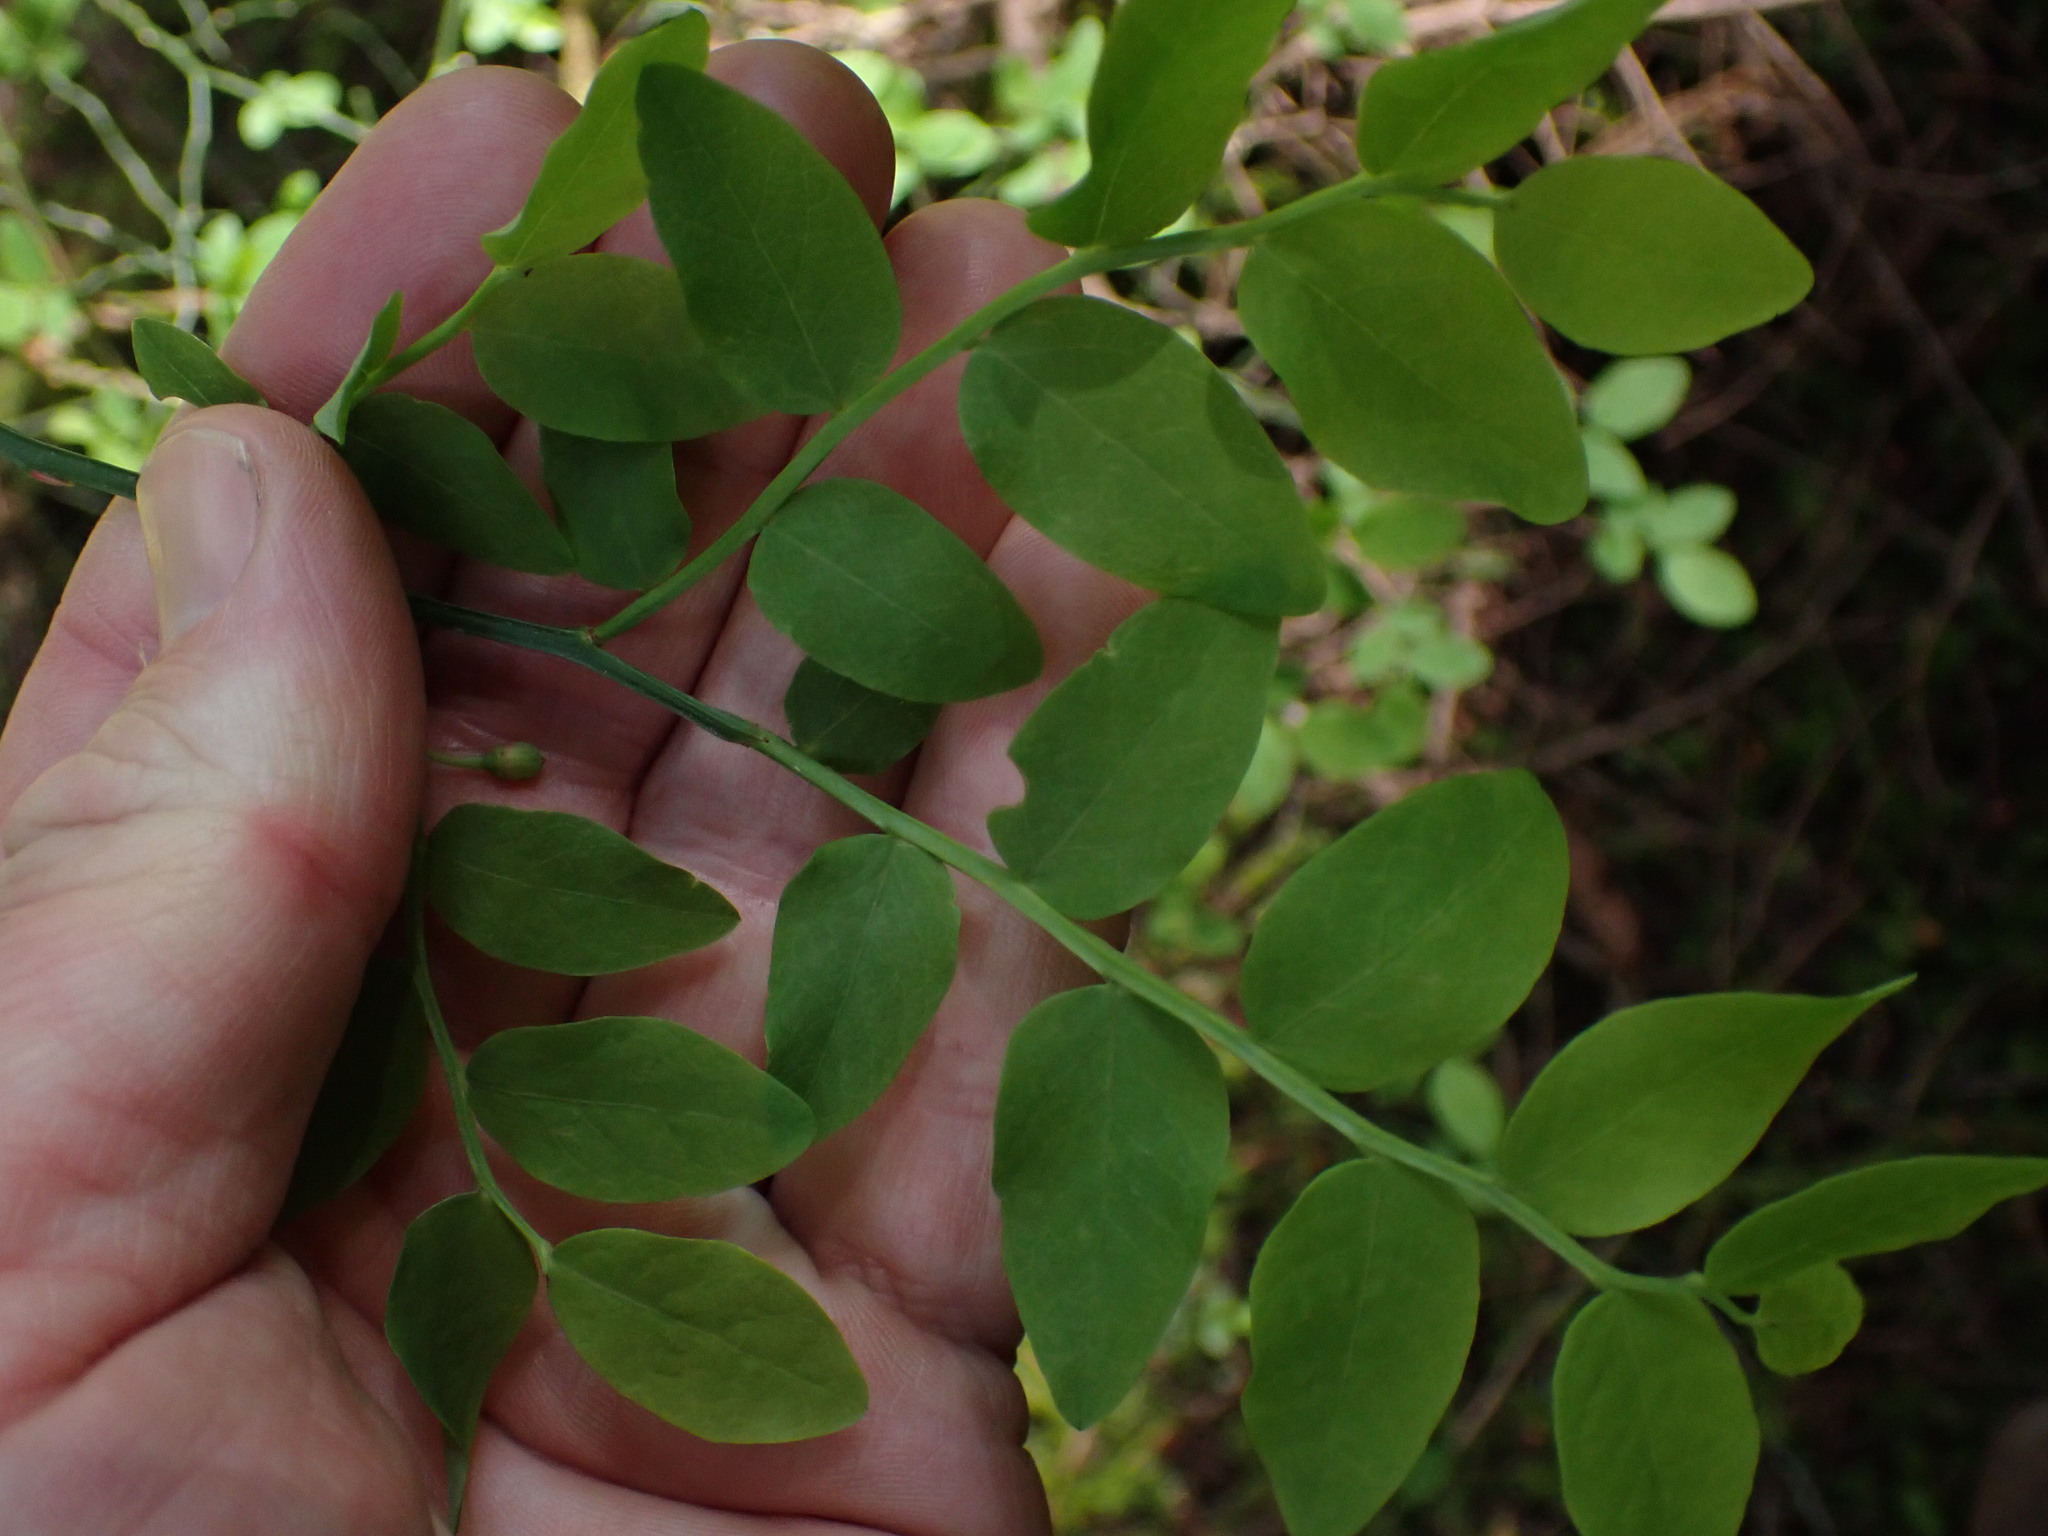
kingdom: Plantae
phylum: Tracheophyta
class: Magnoliopsida
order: Ericales
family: Ericaceae
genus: Vaccinium
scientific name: Vaccinium parvifolium
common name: Red-huckleberry
